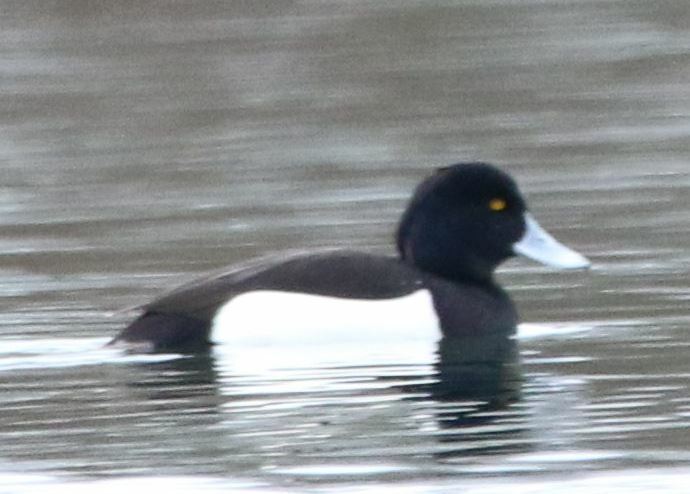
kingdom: Animalia
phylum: Chordata
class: Aves
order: Anseriformes
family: Anatidae
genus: Aythya
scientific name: Aythya fuligula
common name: Tufted duck
